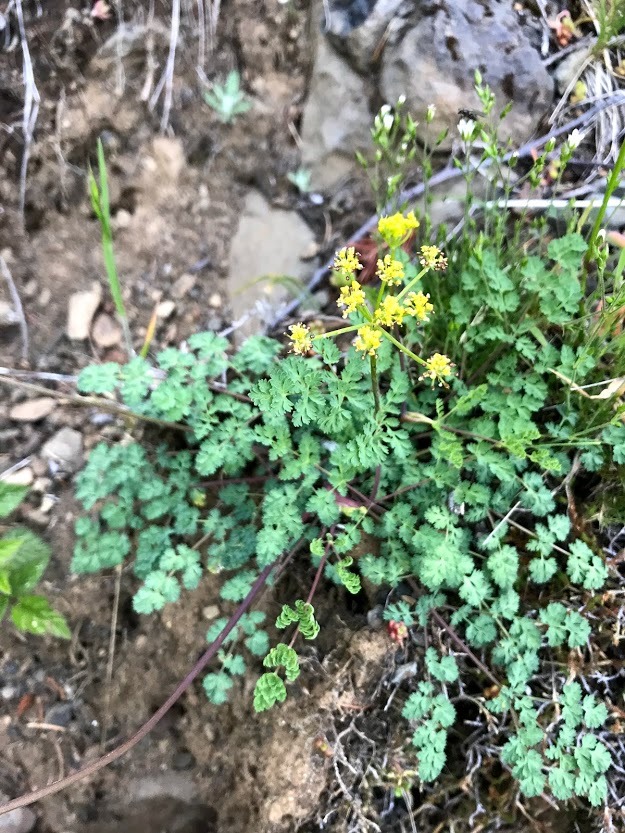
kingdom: Plantae
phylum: Tracheophyta
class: Magnoliopsida
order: Apiales
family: Apiaceae
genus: Lomatium
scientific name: Lomatium martindalei
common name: Cascade desert-parsley
